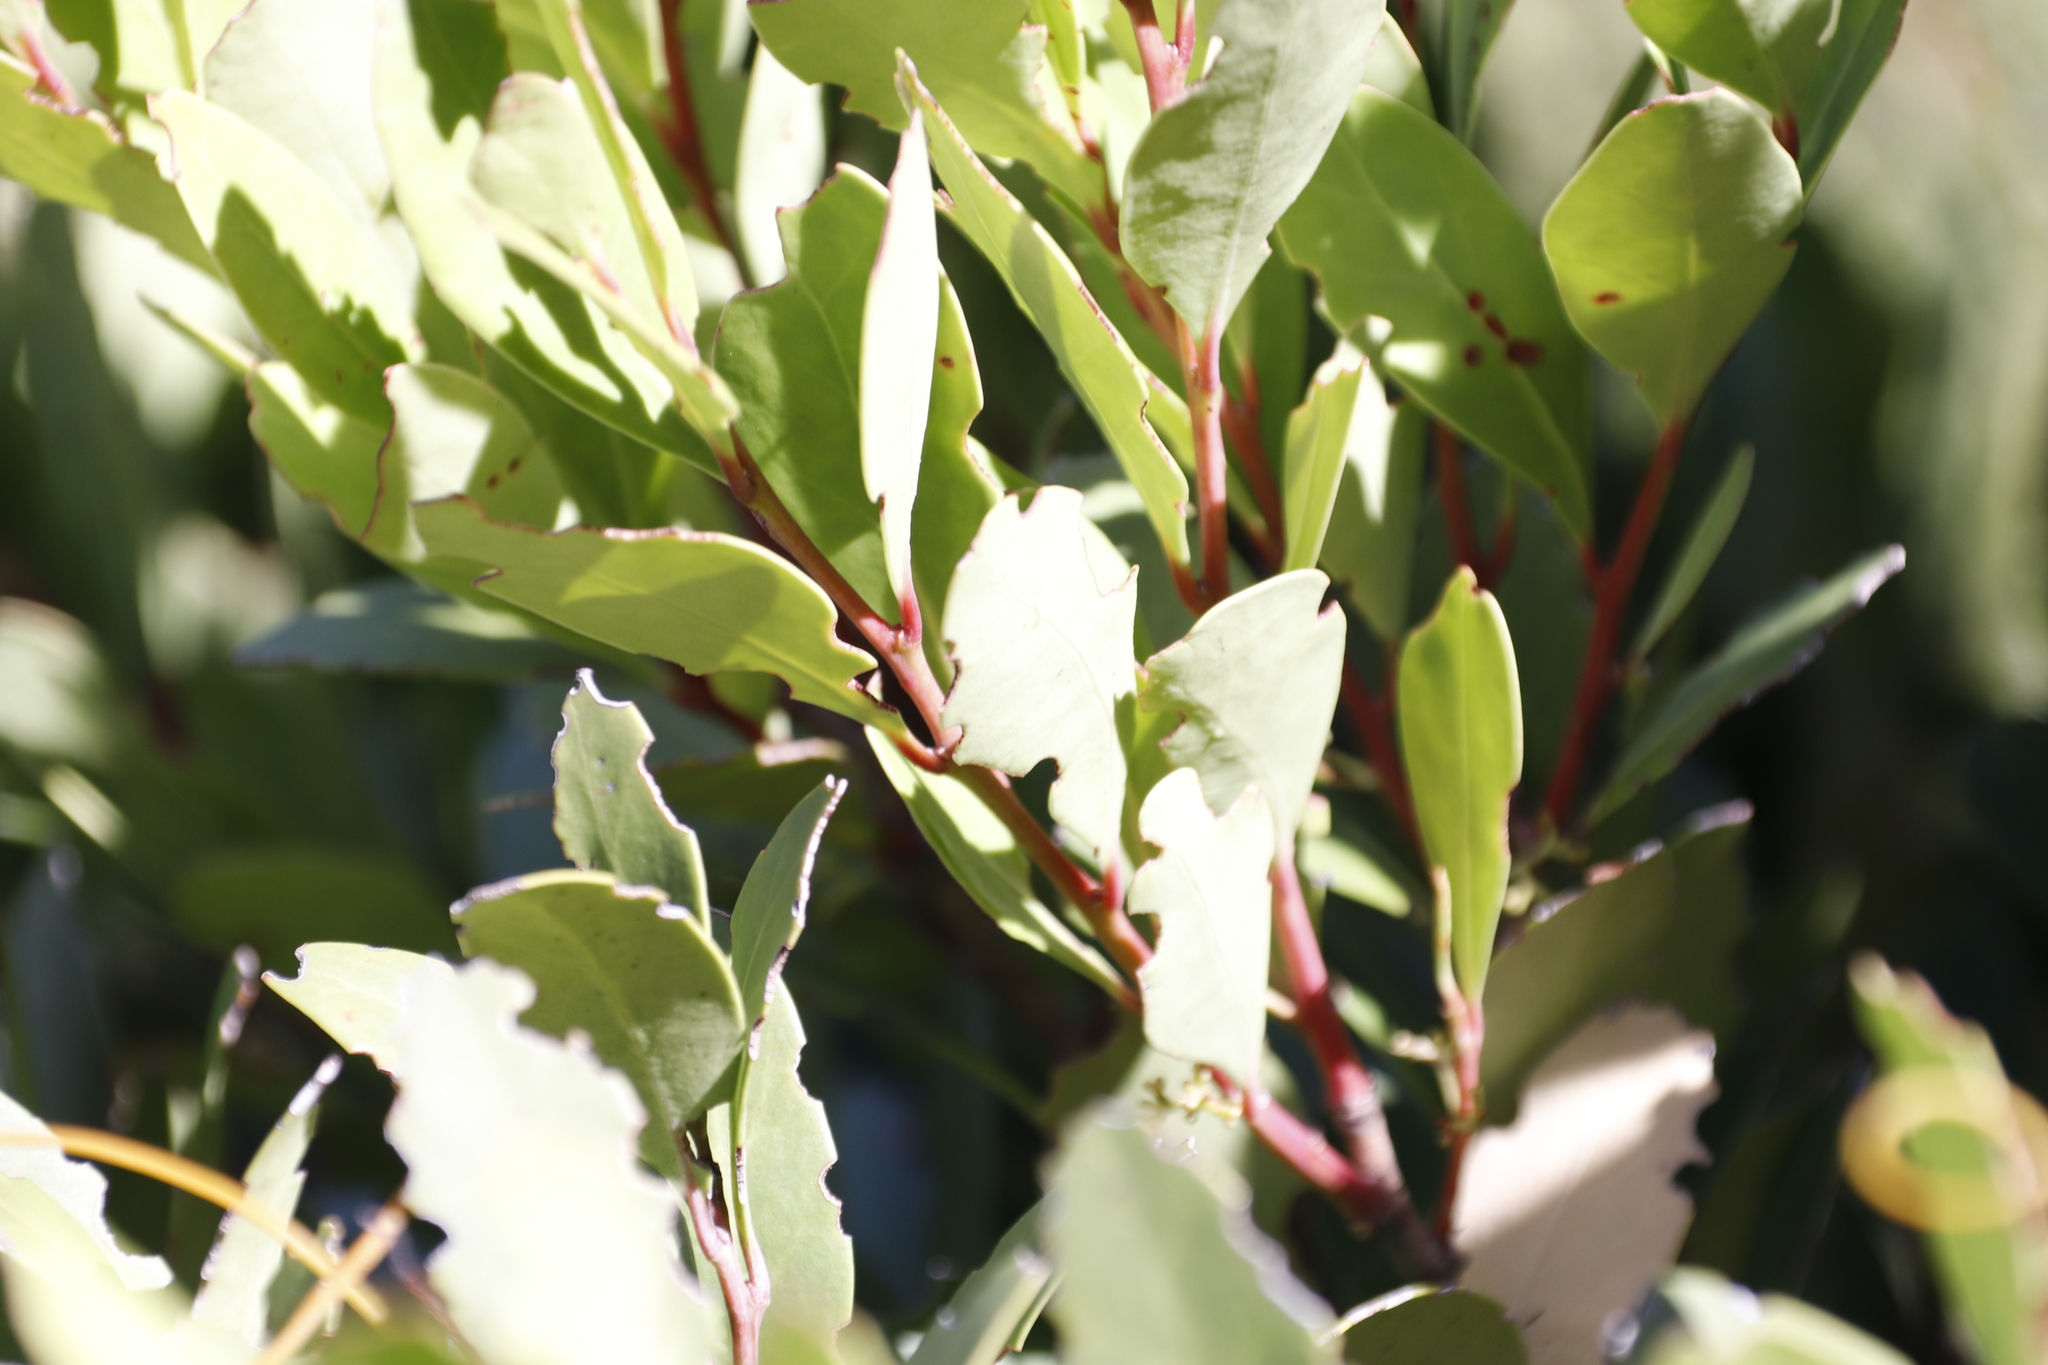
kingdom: Plantae
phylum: Tracheophyta
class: Magnoliopsida
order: Celastrales
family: Celastraceae
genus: Gymnosporia
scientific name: Gymnosporia laurina
